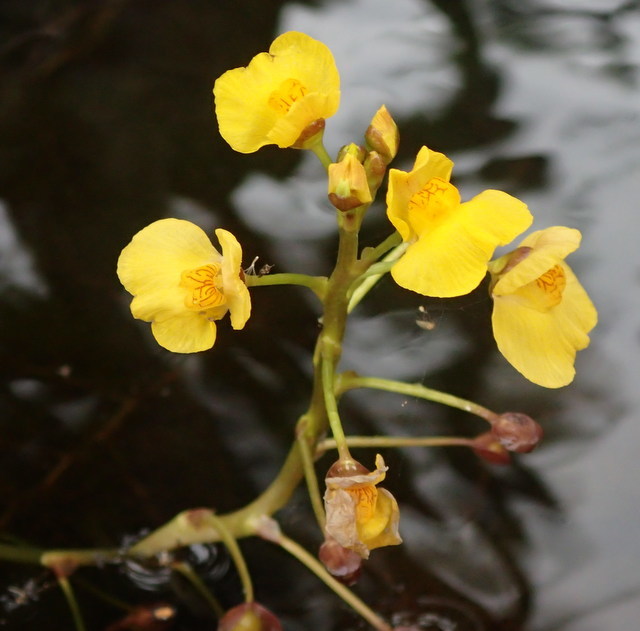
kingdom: Plantae
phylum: Tracheophyta
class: Magnoliopsida
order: Lamiales
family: Lentibulariaceae
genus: Utricularia
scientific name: Utricularia foliosa
